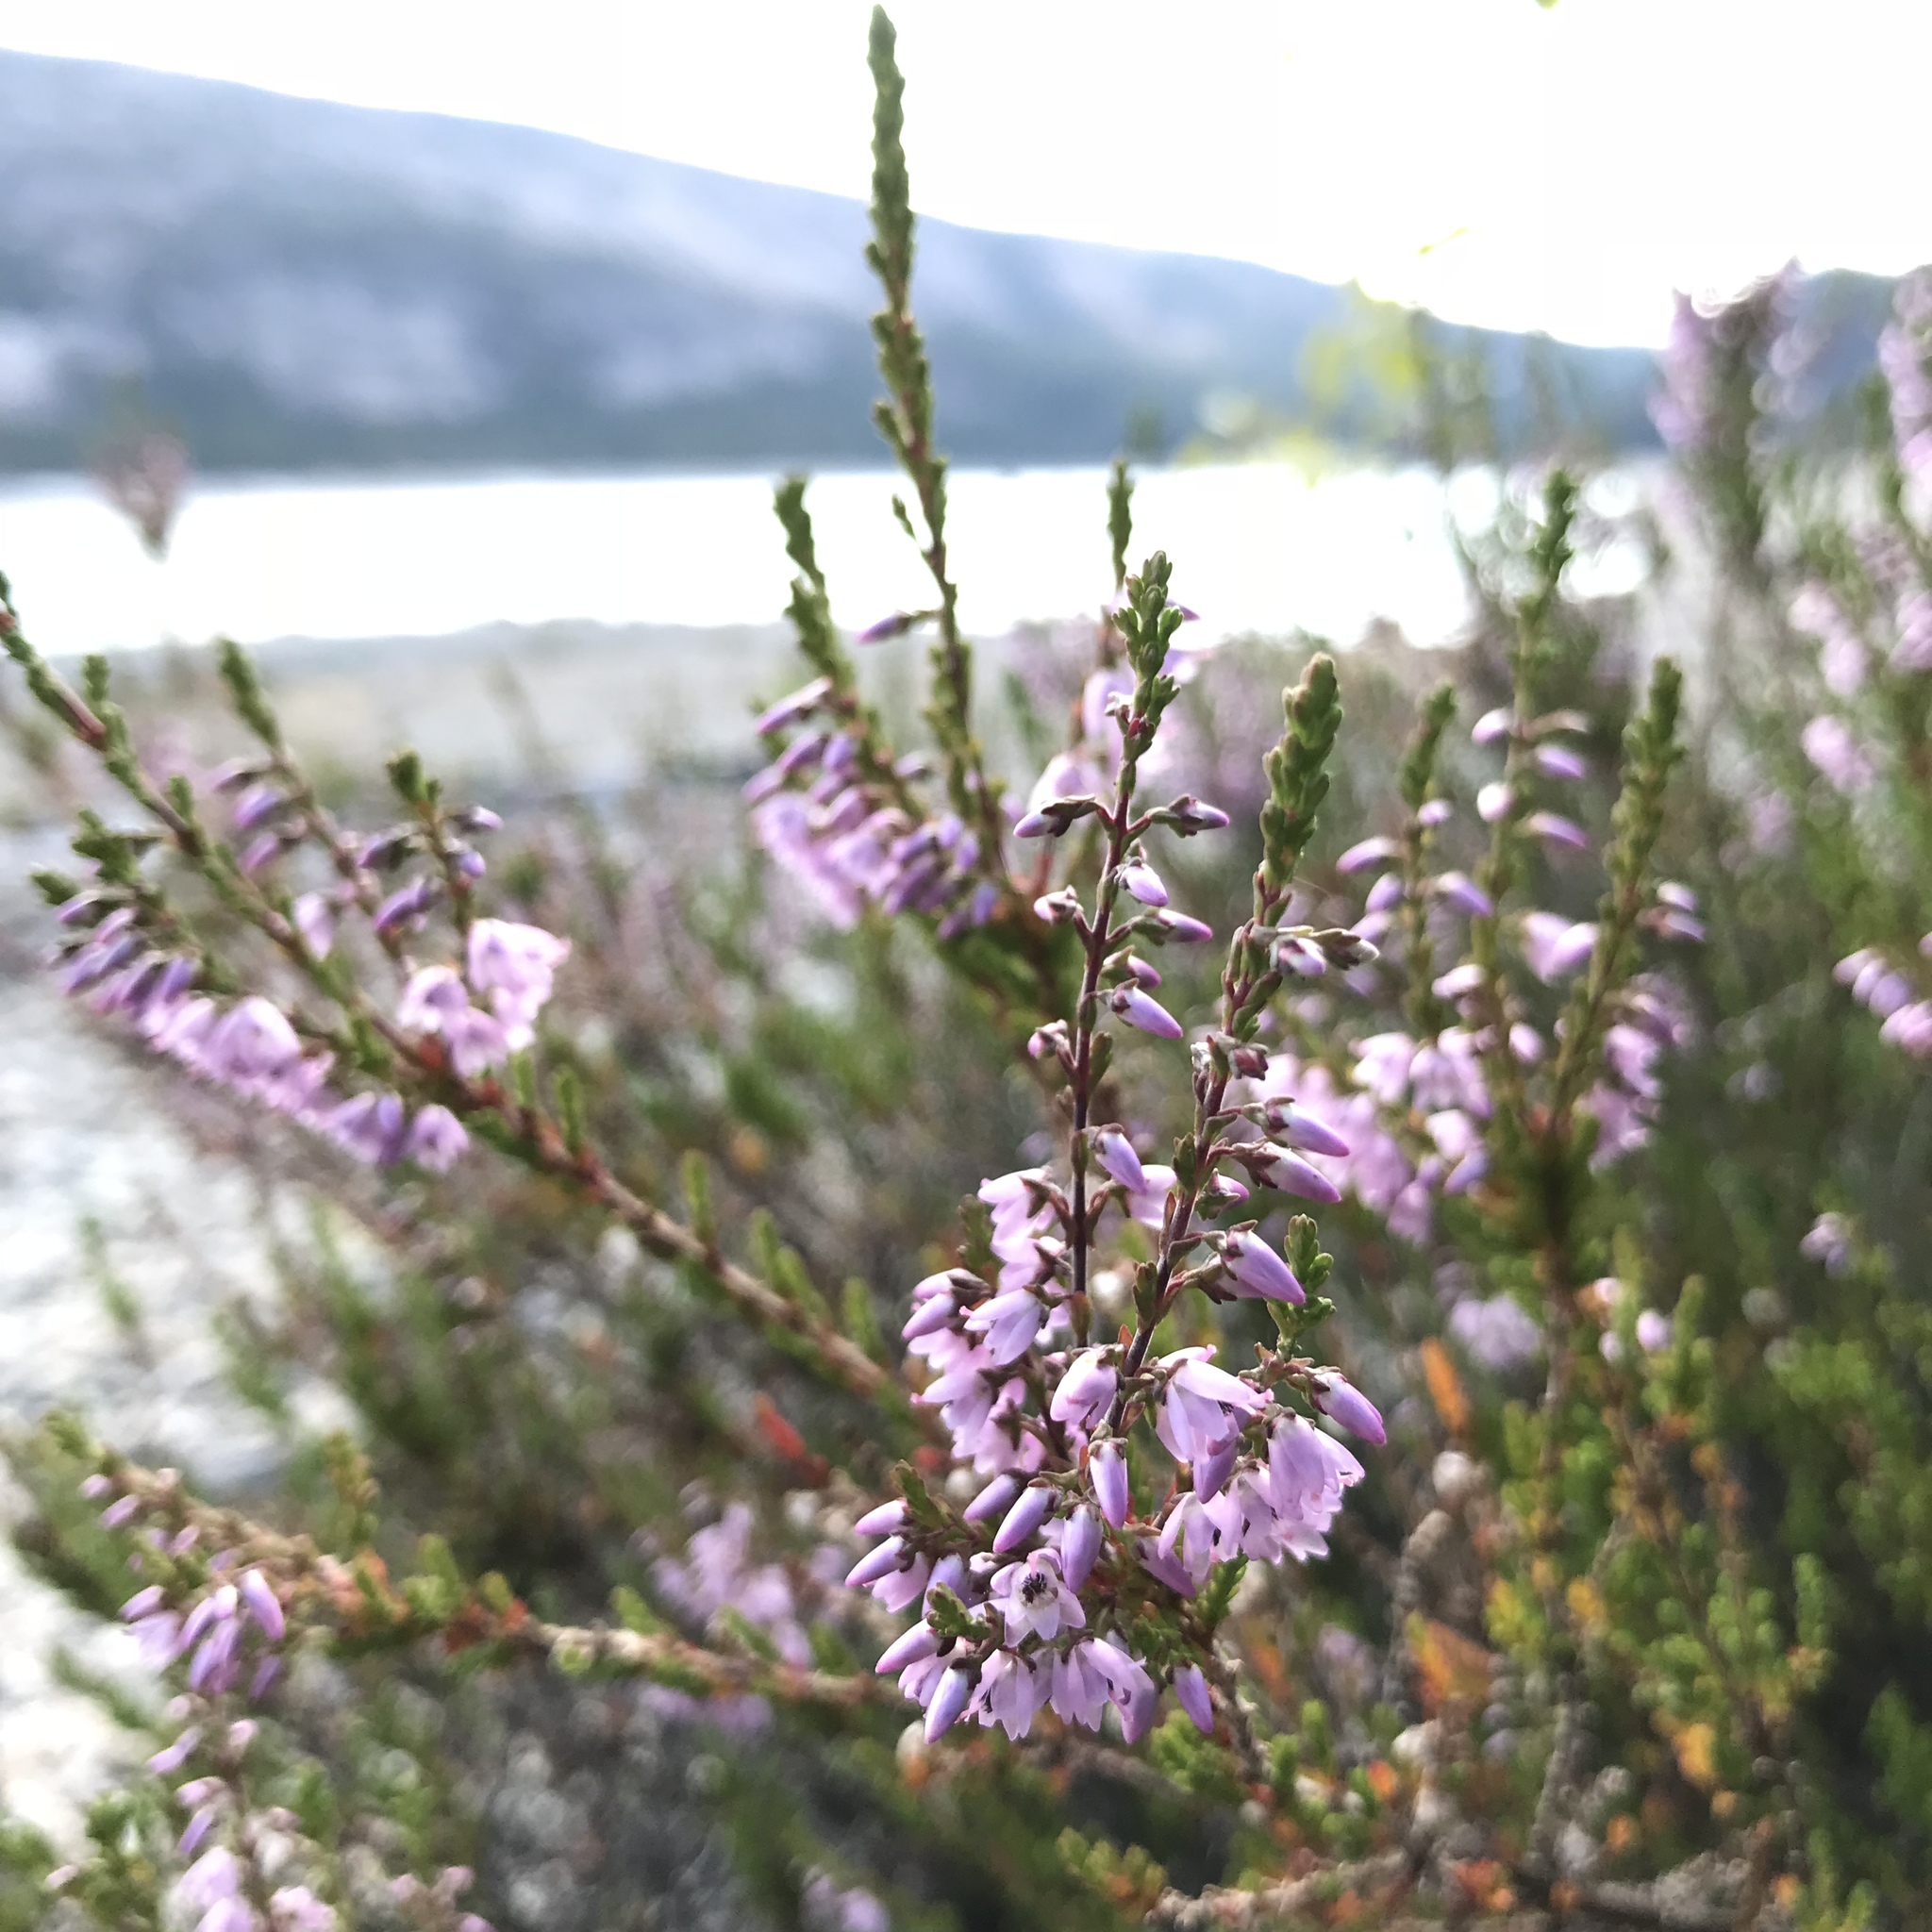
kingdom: Plantae
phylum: Tracheophyta
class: Magnoliopsida
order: Ericales
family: Ericaceae
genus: Calluna
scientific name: Calluna vulgaris
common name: Heather
